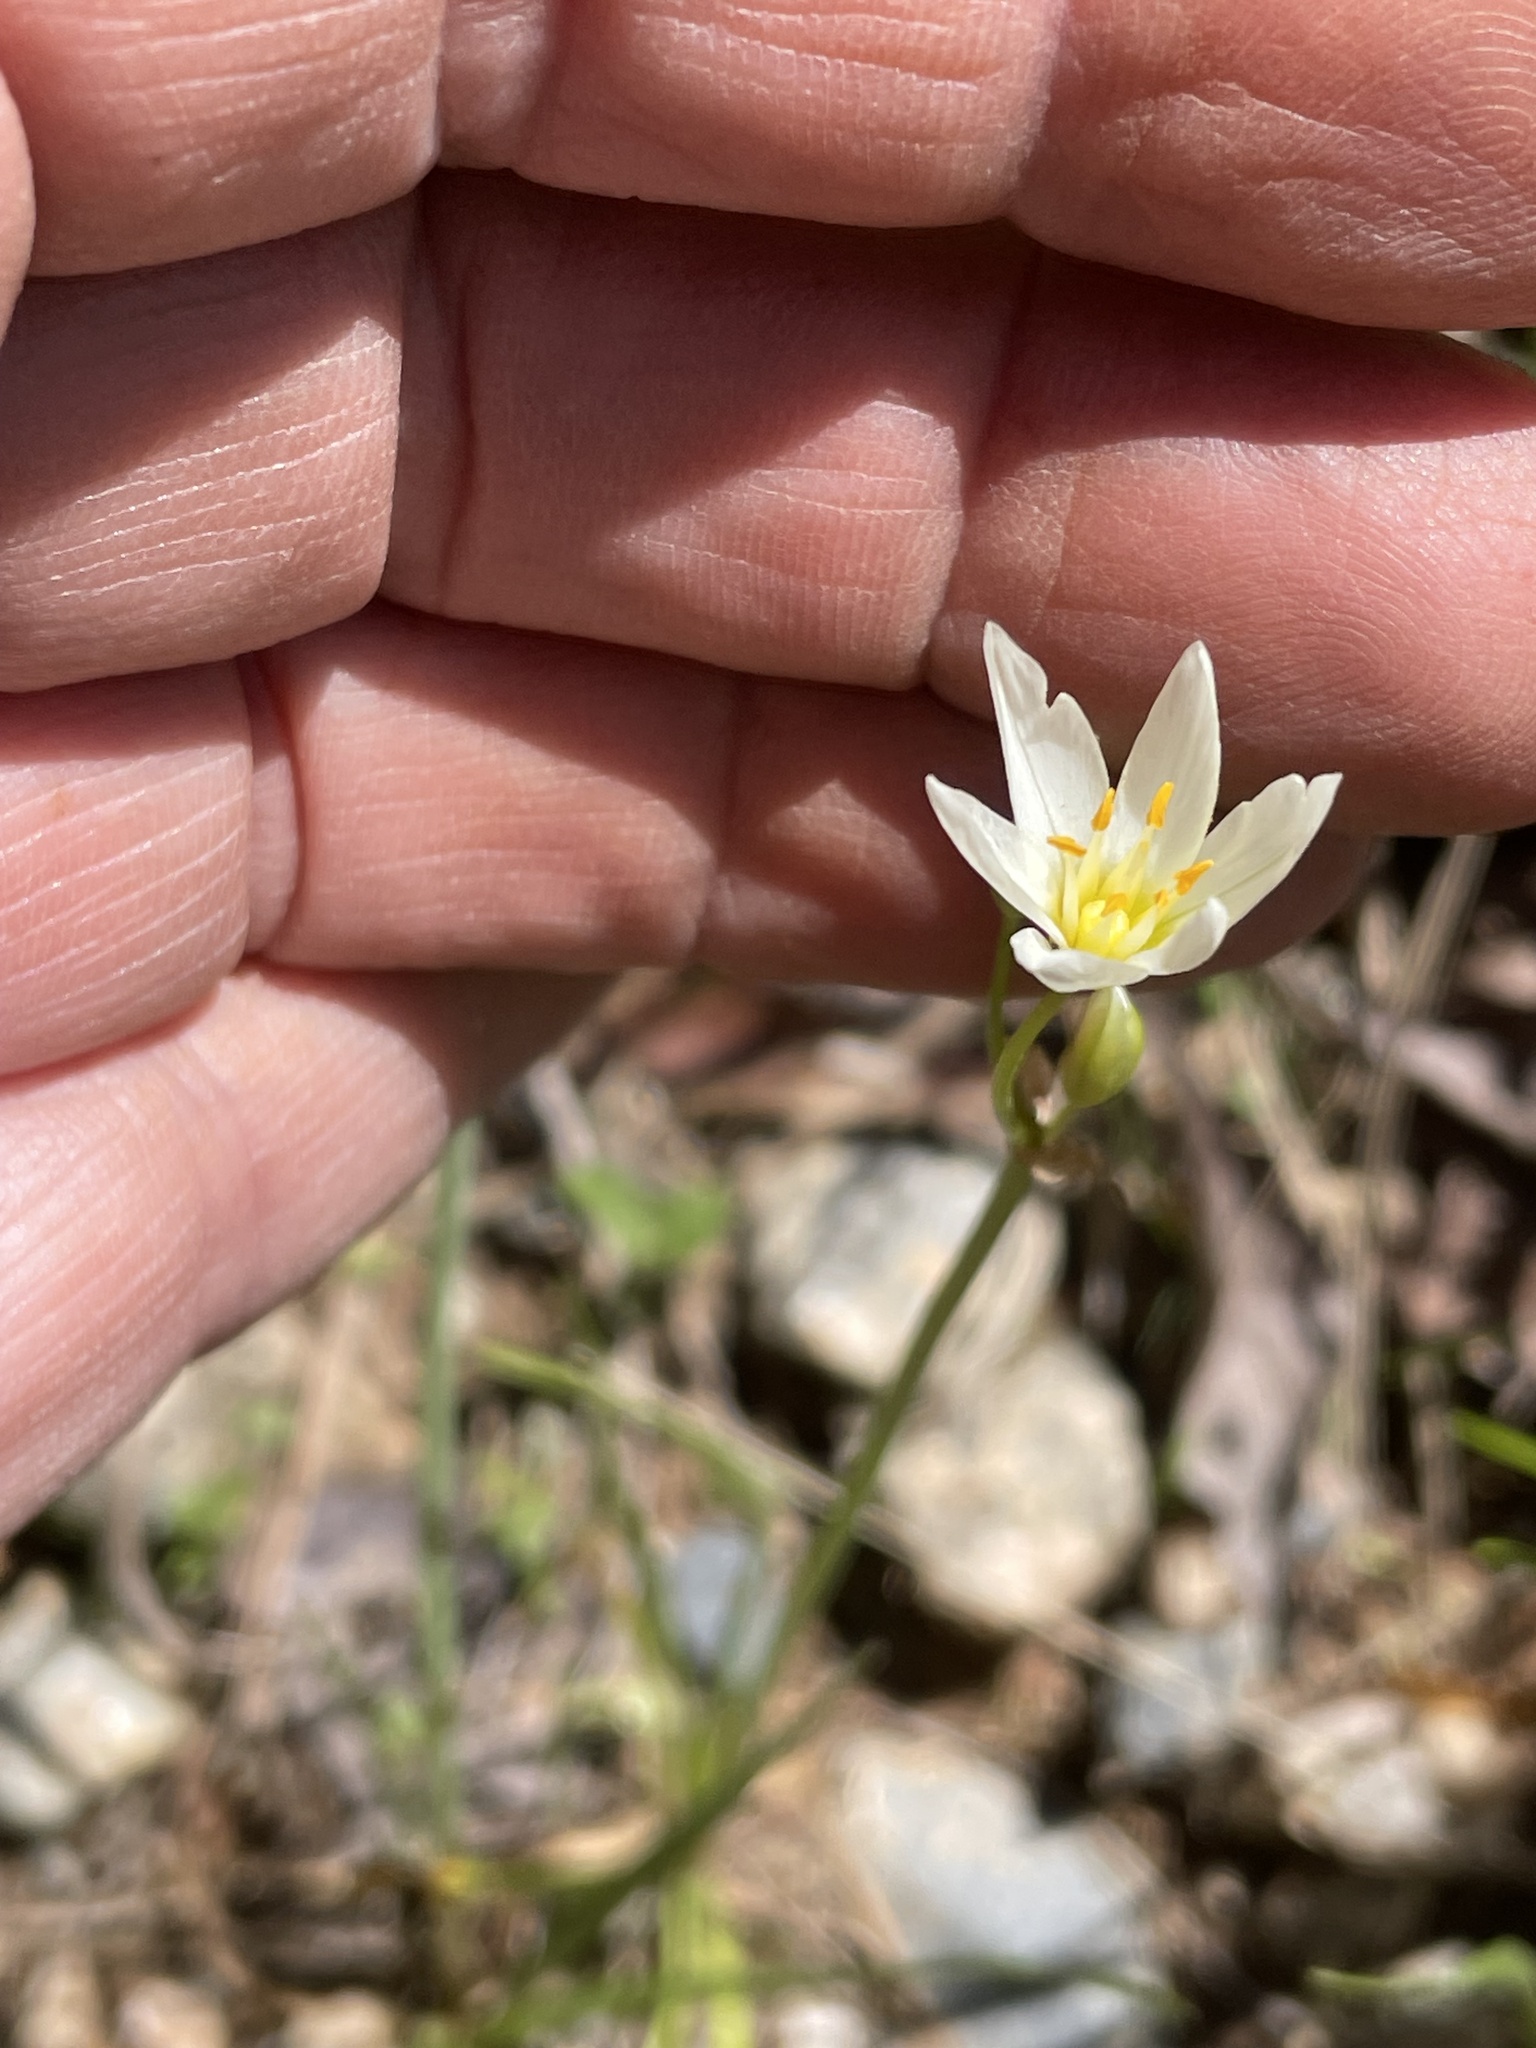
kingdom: Plantae
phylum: Tracheophyta
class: Liliopsida
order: Asparagales
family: Amaryllidaceae
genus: Nothoscordum
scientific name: Nothoscordum bivalve
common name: Crow-poison
